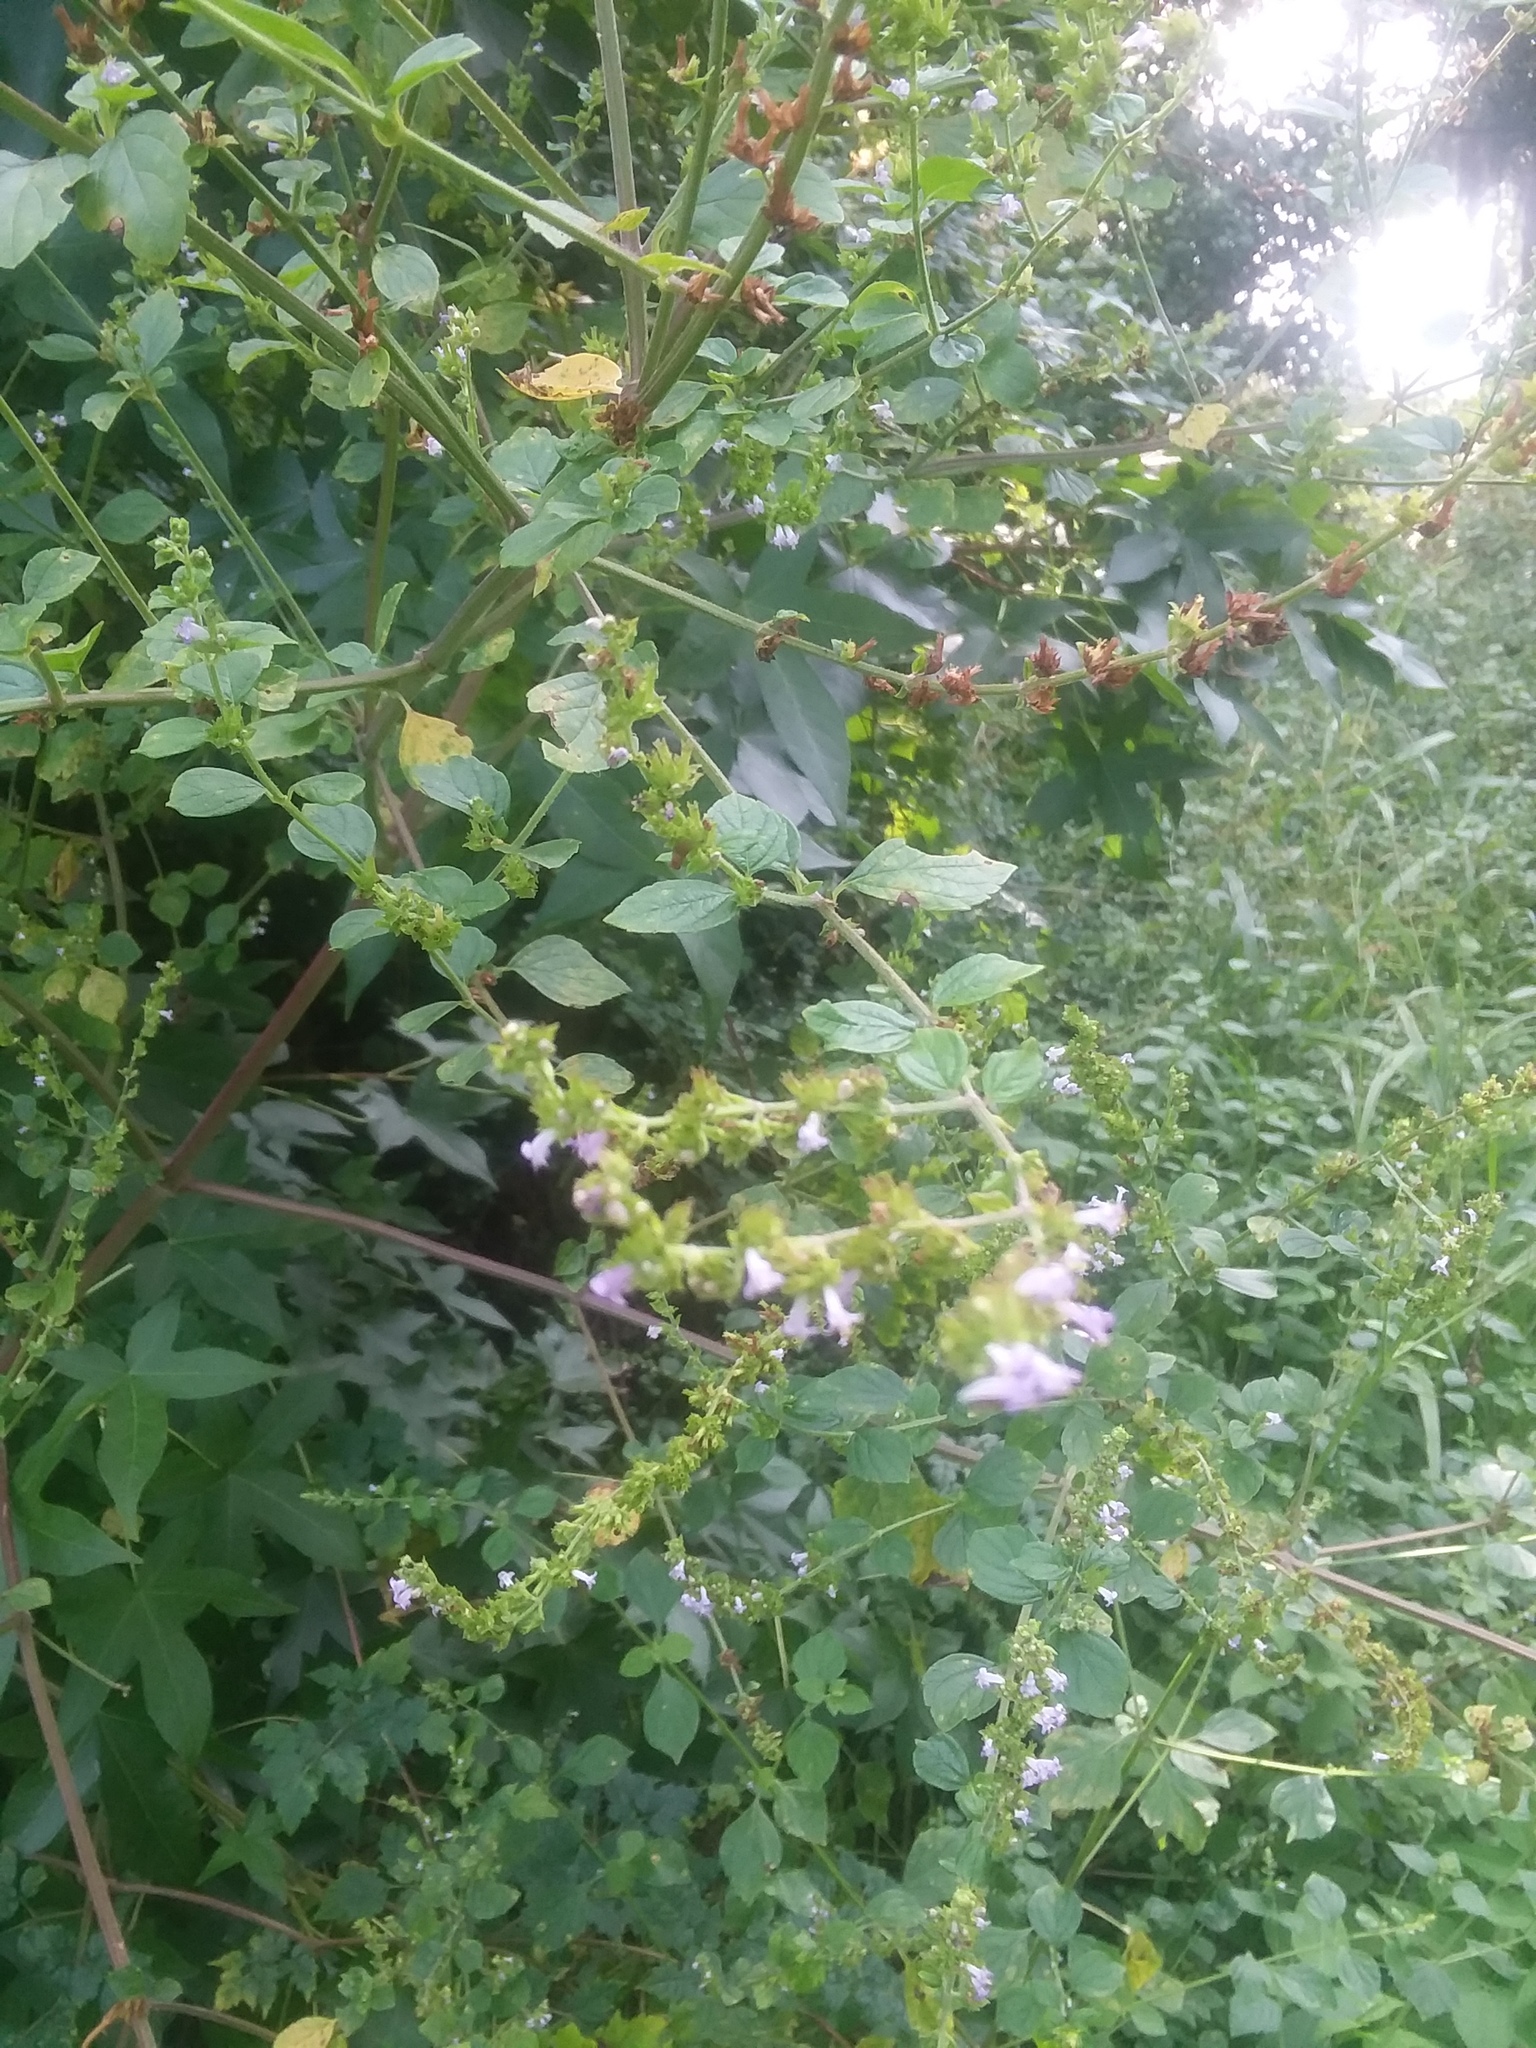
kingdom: Plantae
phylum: Tracheophyta
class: Magnoliopsida
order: Lamiales
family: Lamiaceae
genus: Cantinoa
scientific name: Cantinoa mutabilis
